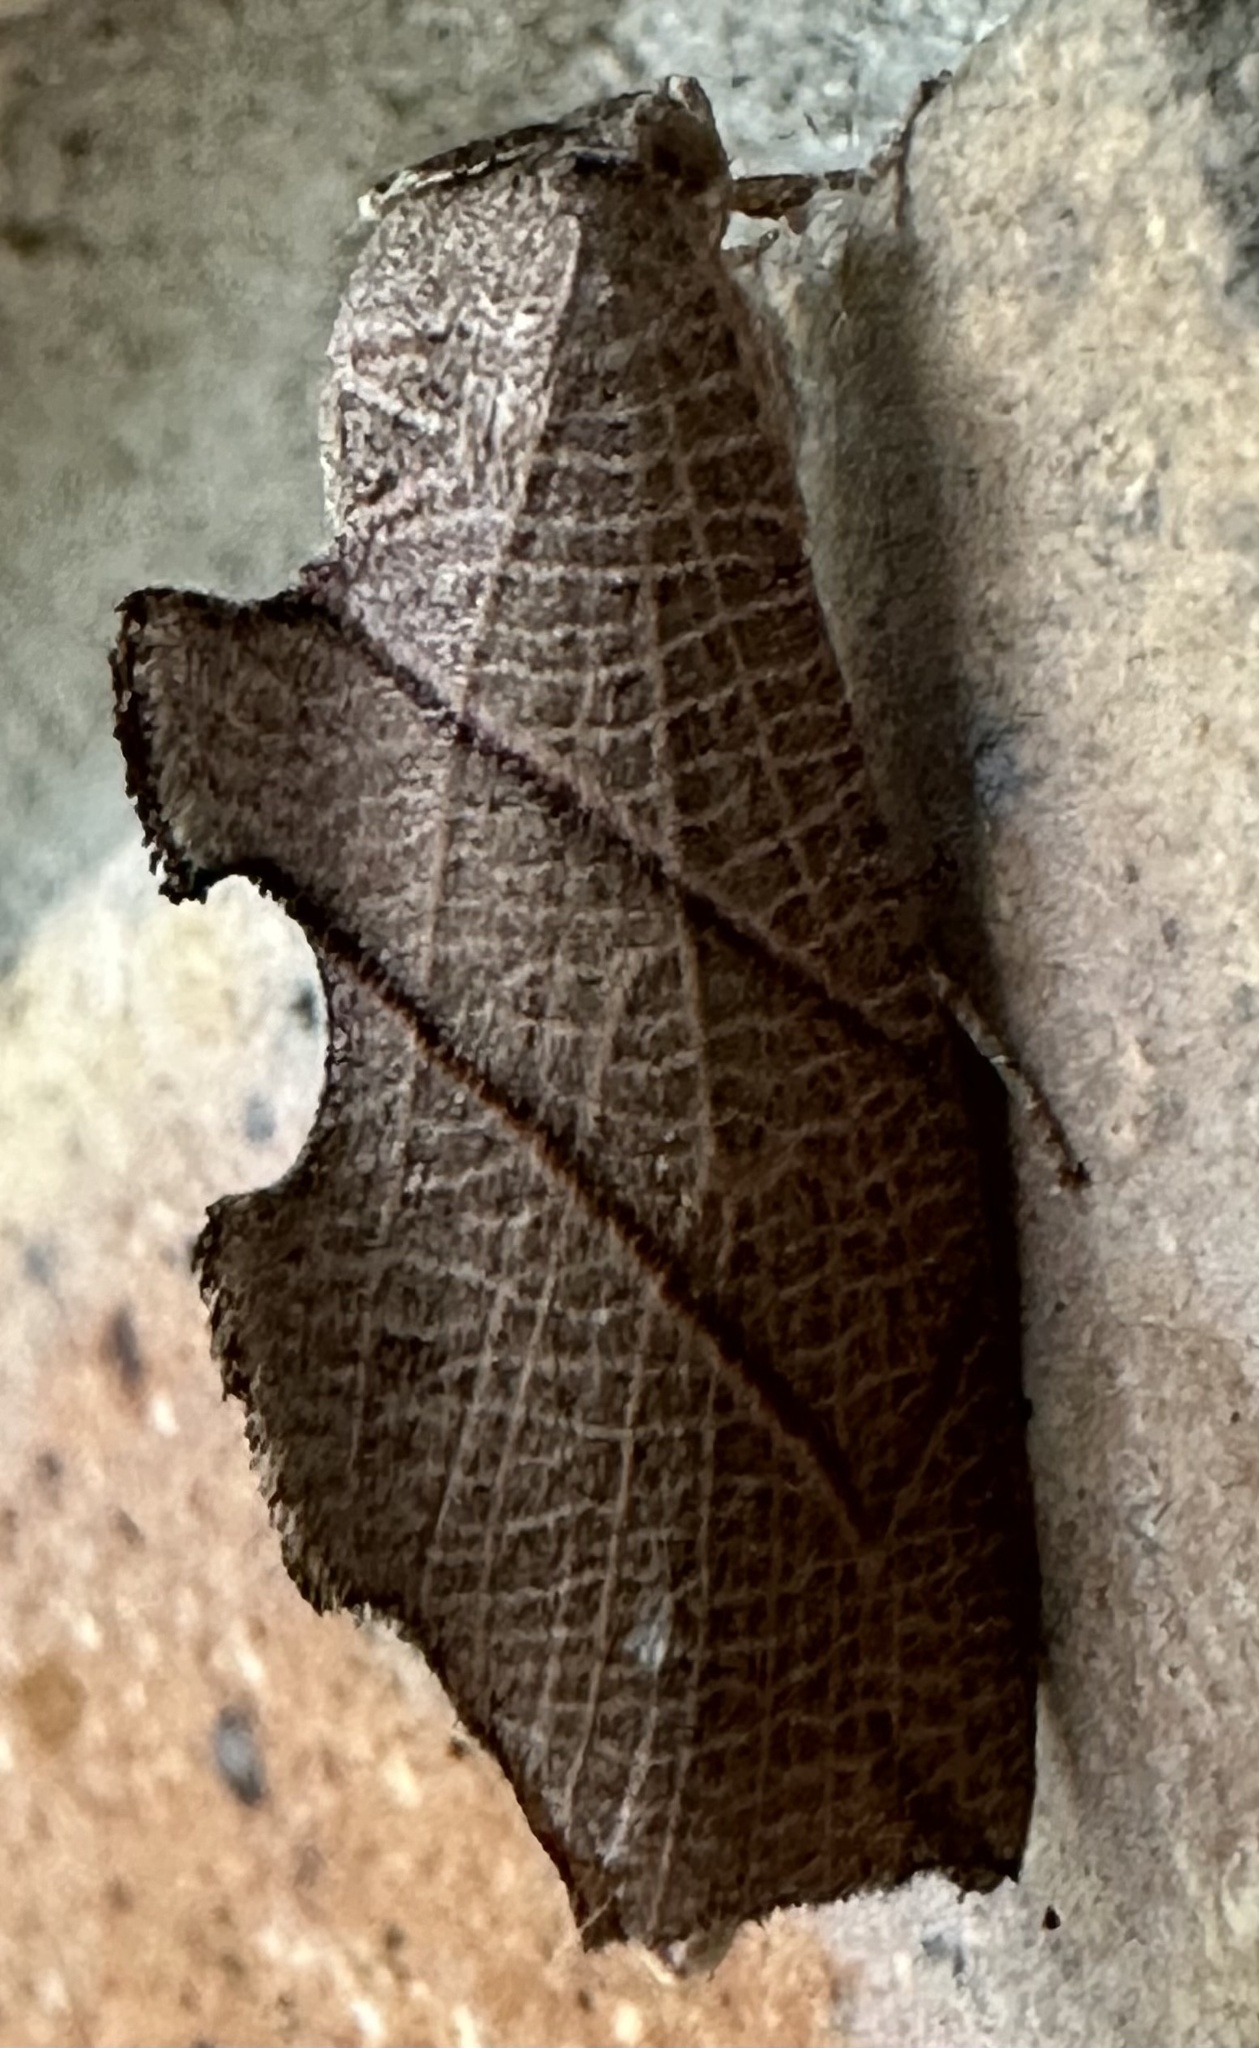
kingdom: Animalia
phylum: Arthropoda
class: Insecta
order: Lepidoptera
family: Nolidae
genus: Arcyophora
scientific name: Arcyophora zanderi
